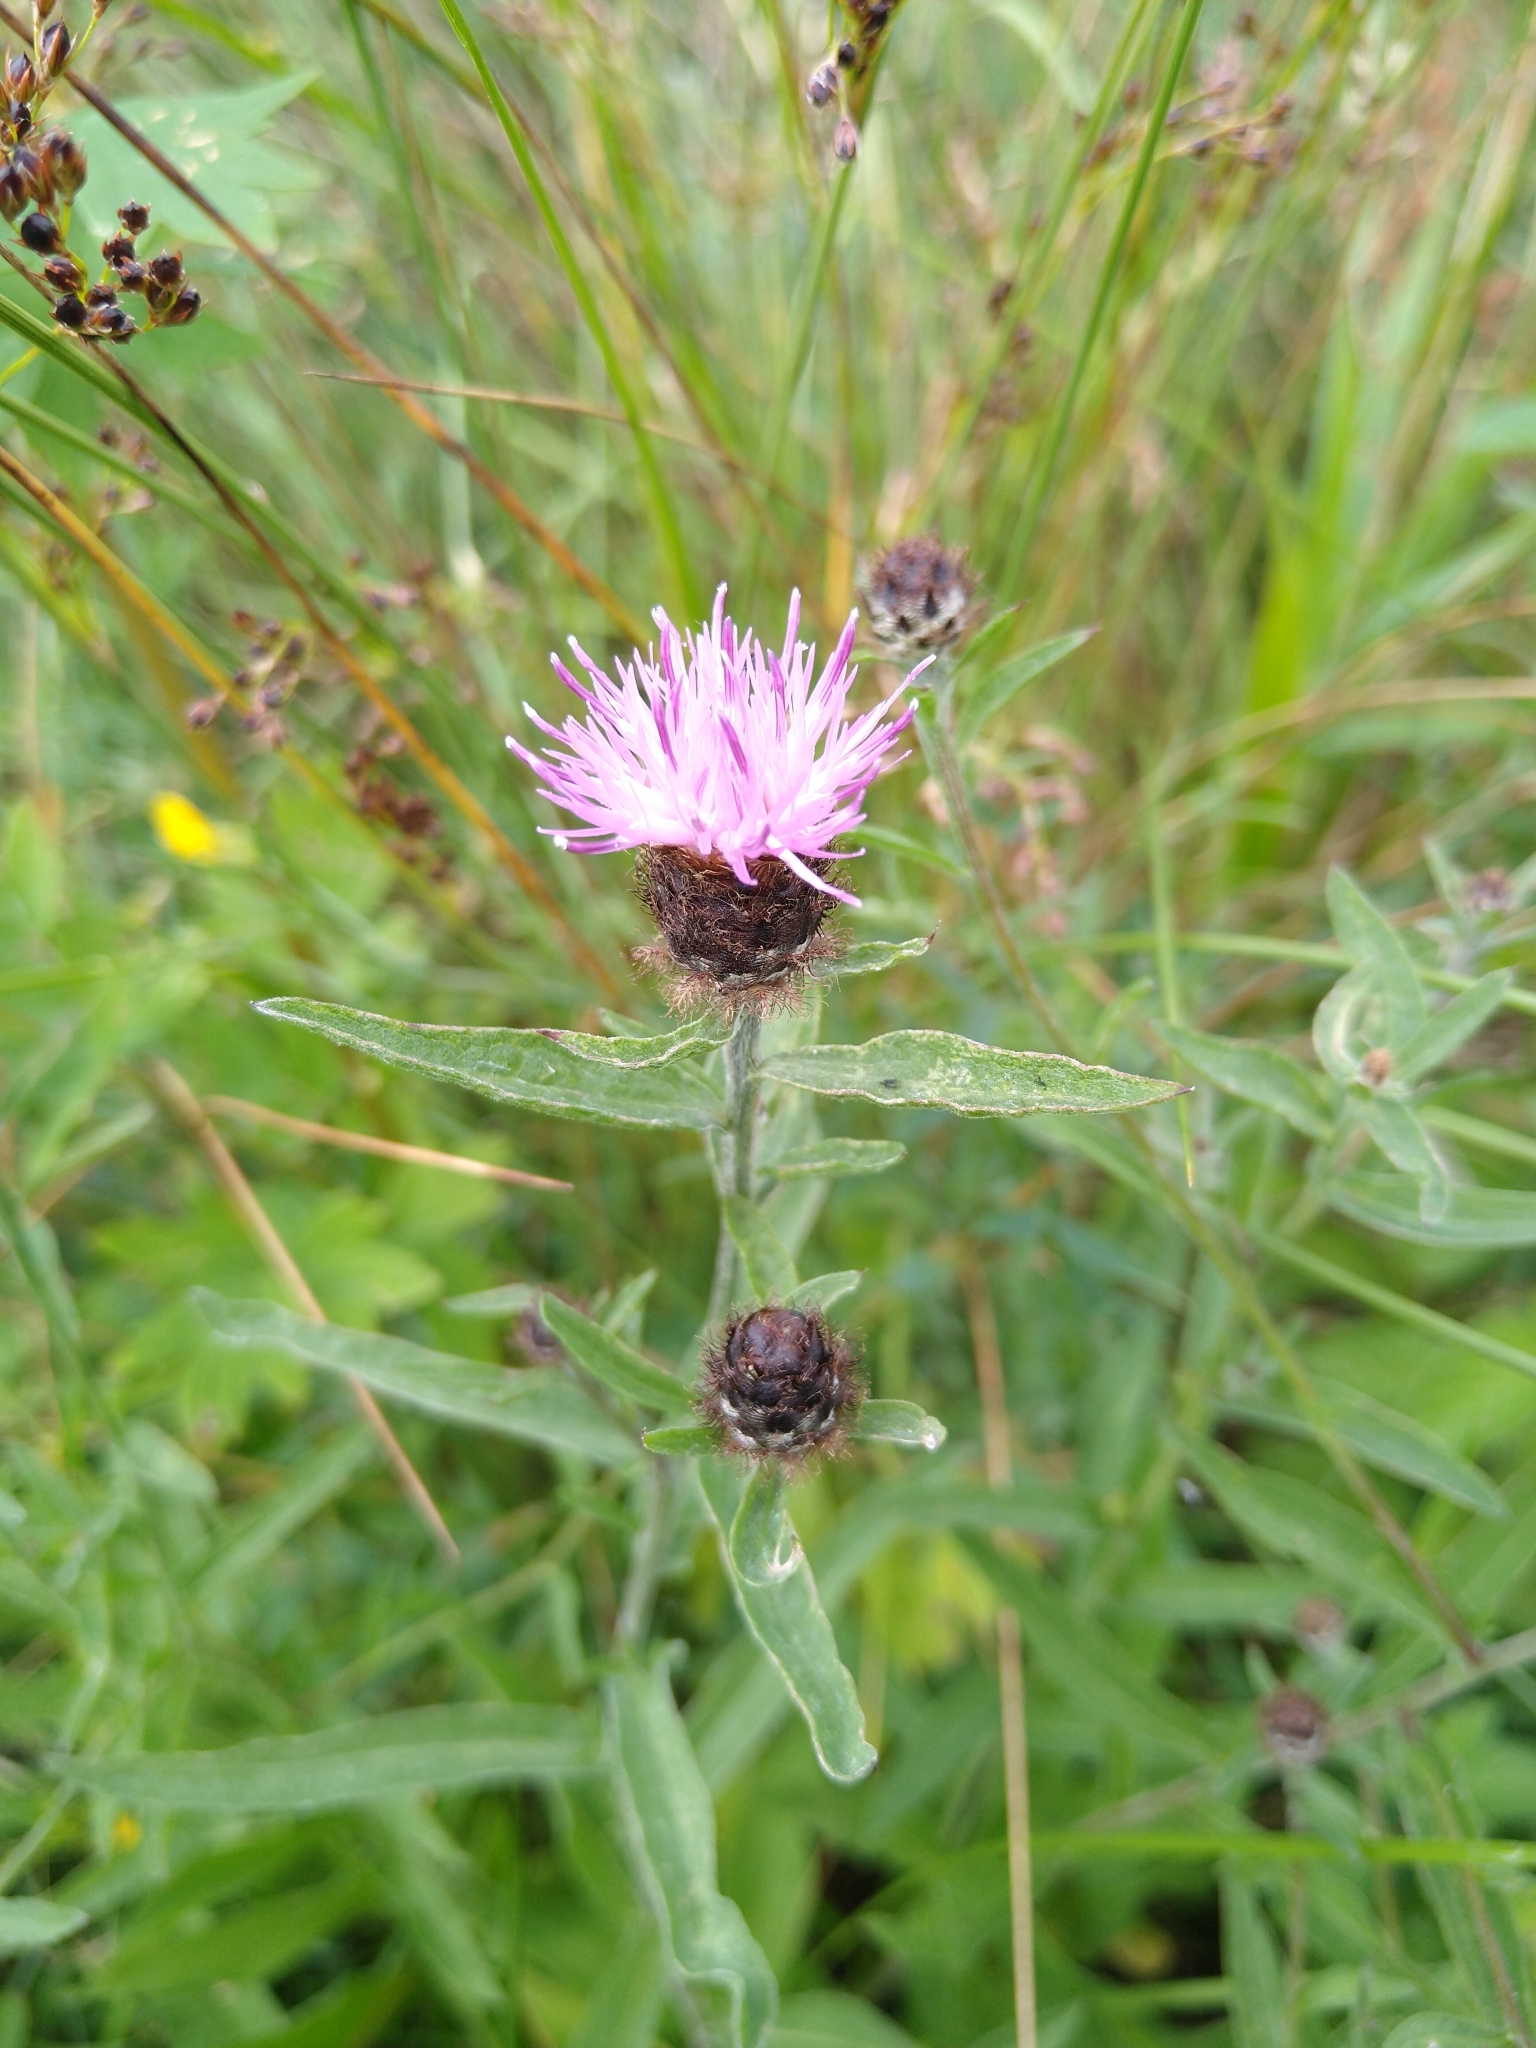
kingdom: Plantae
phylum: Tracheophyta
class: Magnoliopsida
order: Asterales
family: Asteraceae
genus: Centaurea
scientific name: Centaurea nigra
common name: Lesser knapweed
